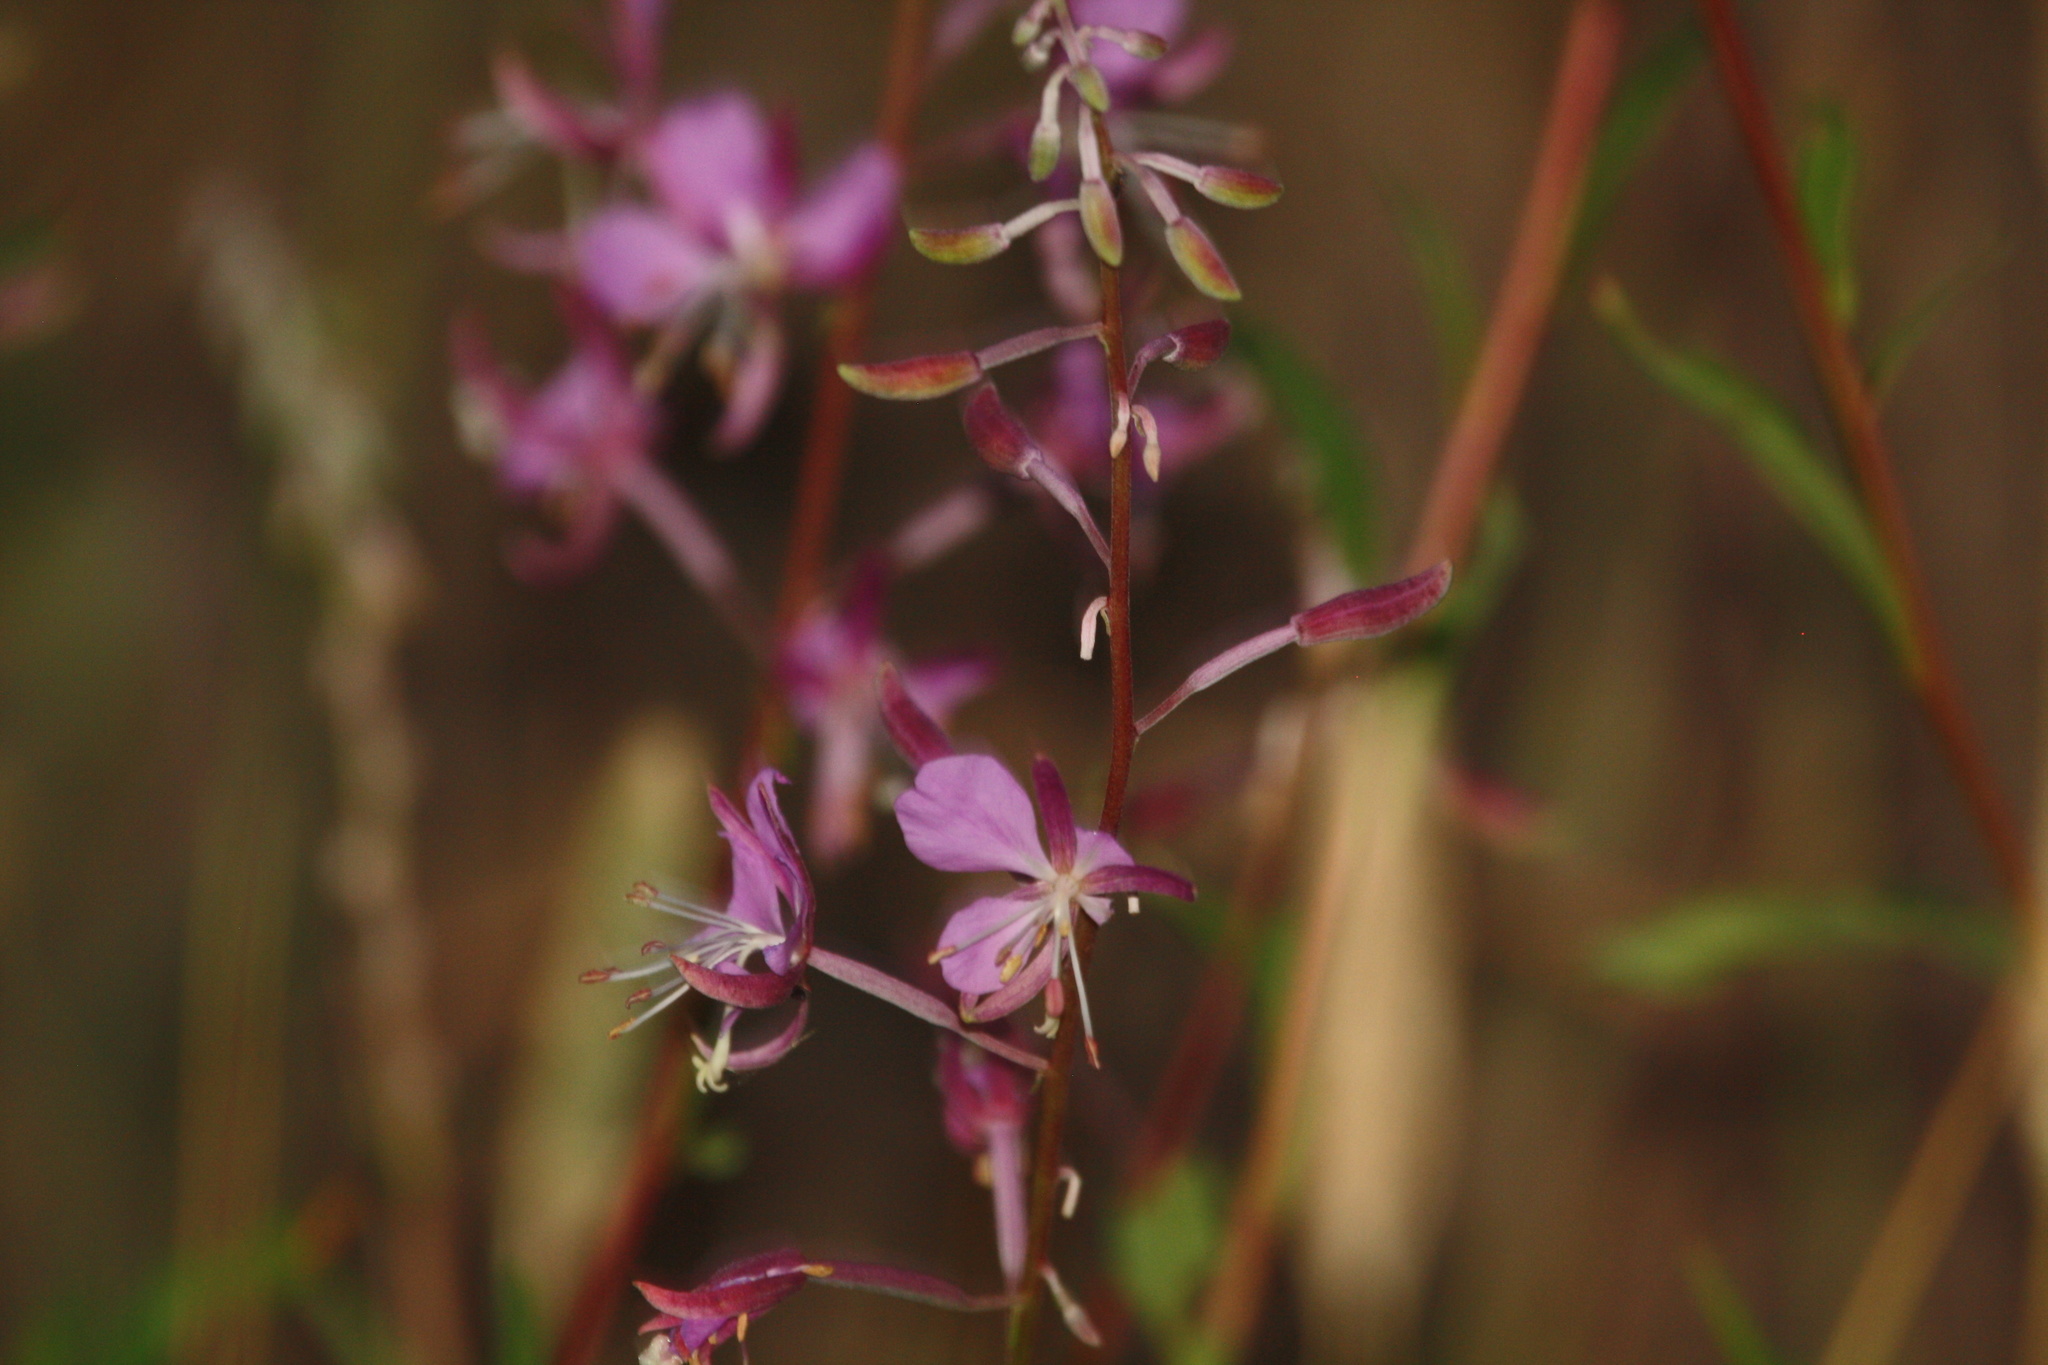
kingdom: Plantae
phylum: Tracheophyta
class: Magnoliopsida
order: Myrtales
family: Onagraceae
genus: Oenothera
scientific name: Oenothera suffrutescens
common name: Scarlet beeblossom
